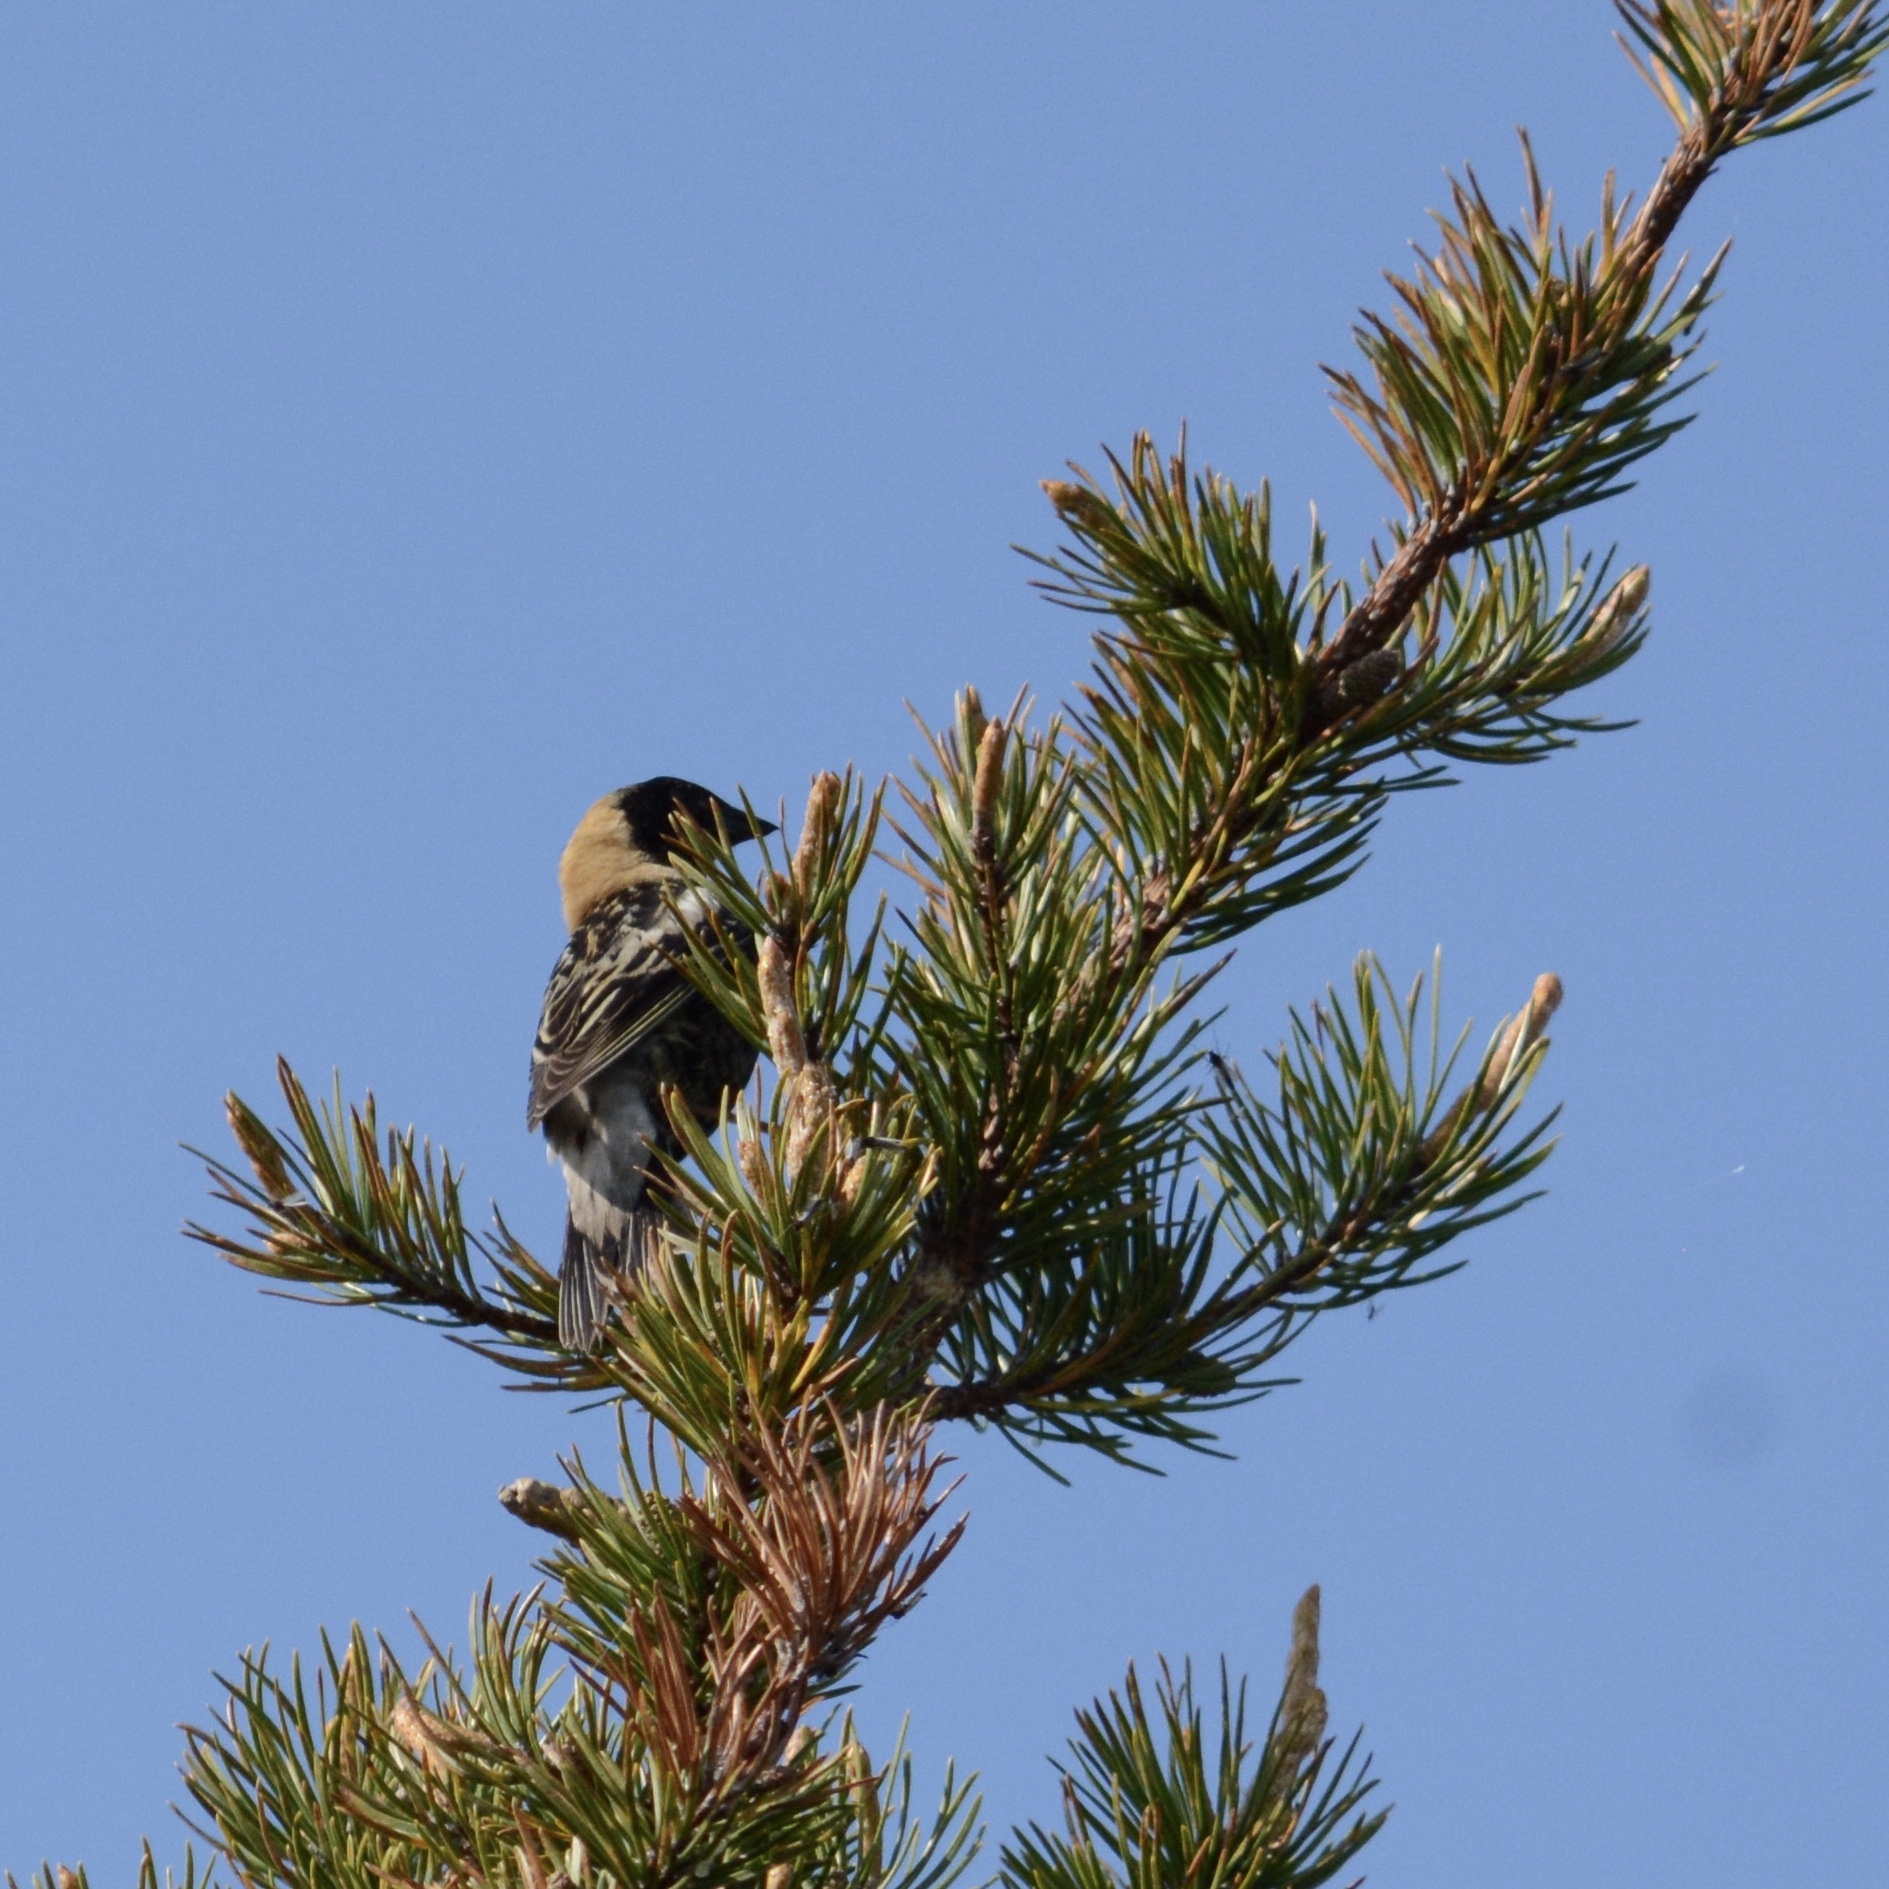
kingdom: Animalia
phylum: Chordata
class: Aves
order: Passeriformes
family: Icteridae
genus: Dolichonyx
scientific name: Dolichonyx oryzivorus
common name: Bobolink
